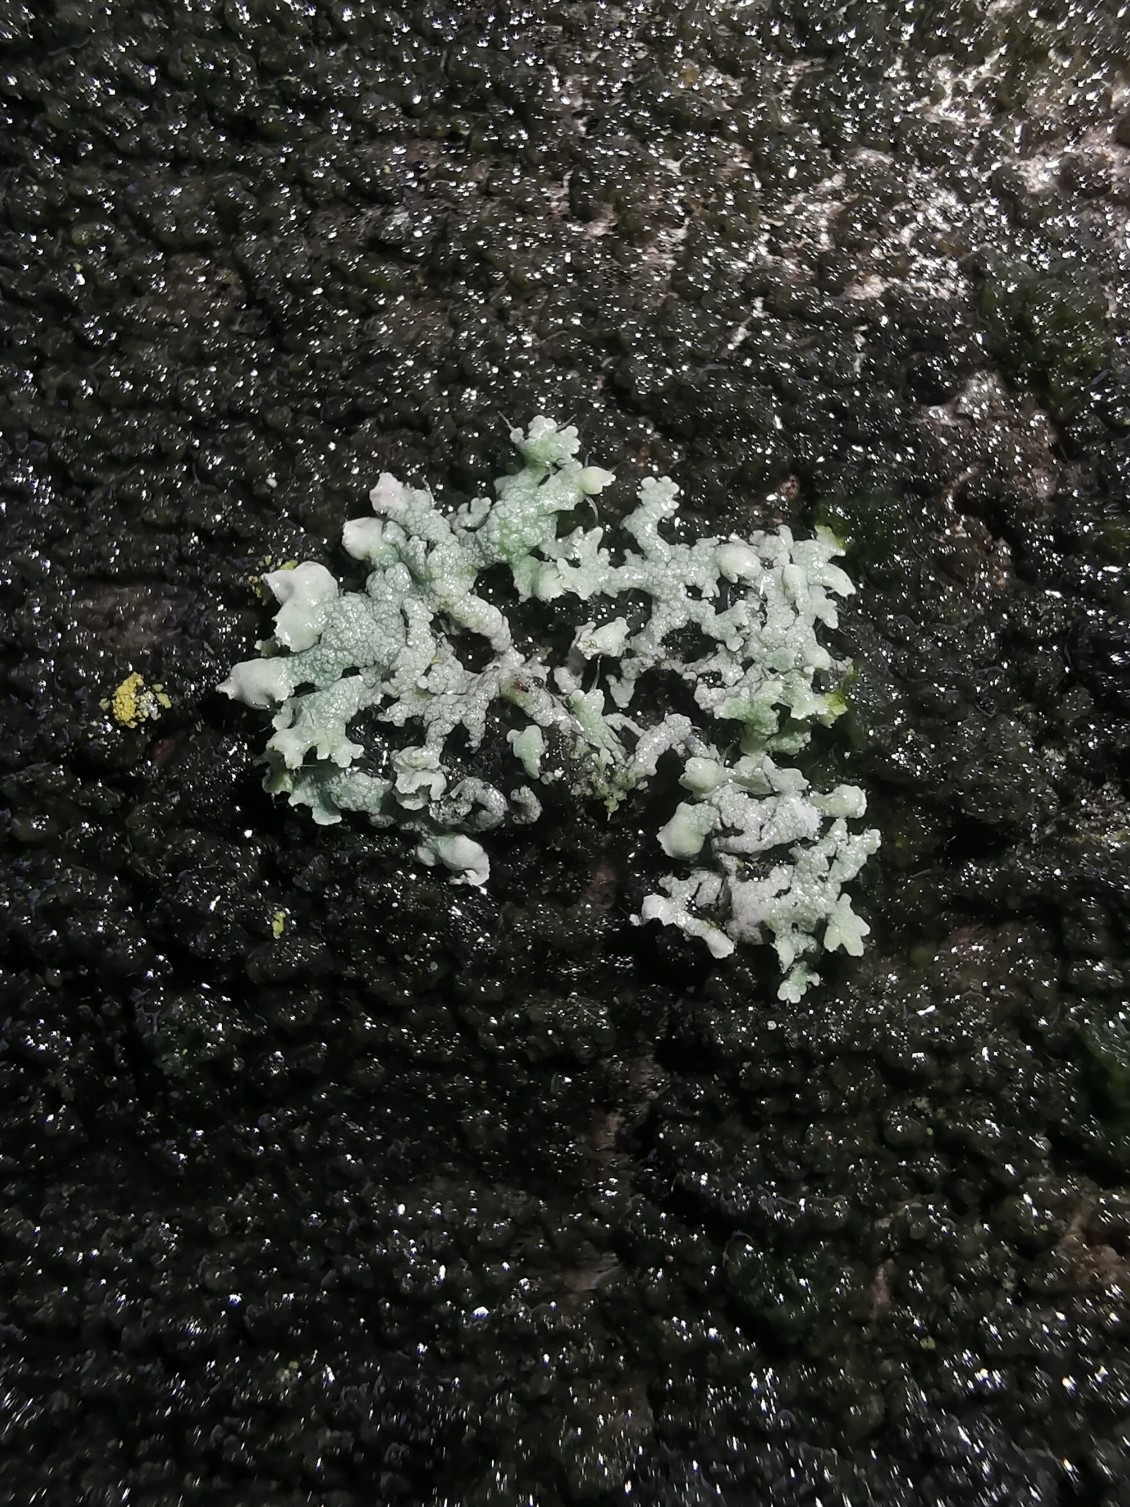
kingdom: Fungi
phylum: Ascomycota
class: Lecanoromycetes
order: Caliciales
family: Physciaceae
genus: Physcia
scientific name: Physcia adscendens
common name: Hooded rosette lichen
